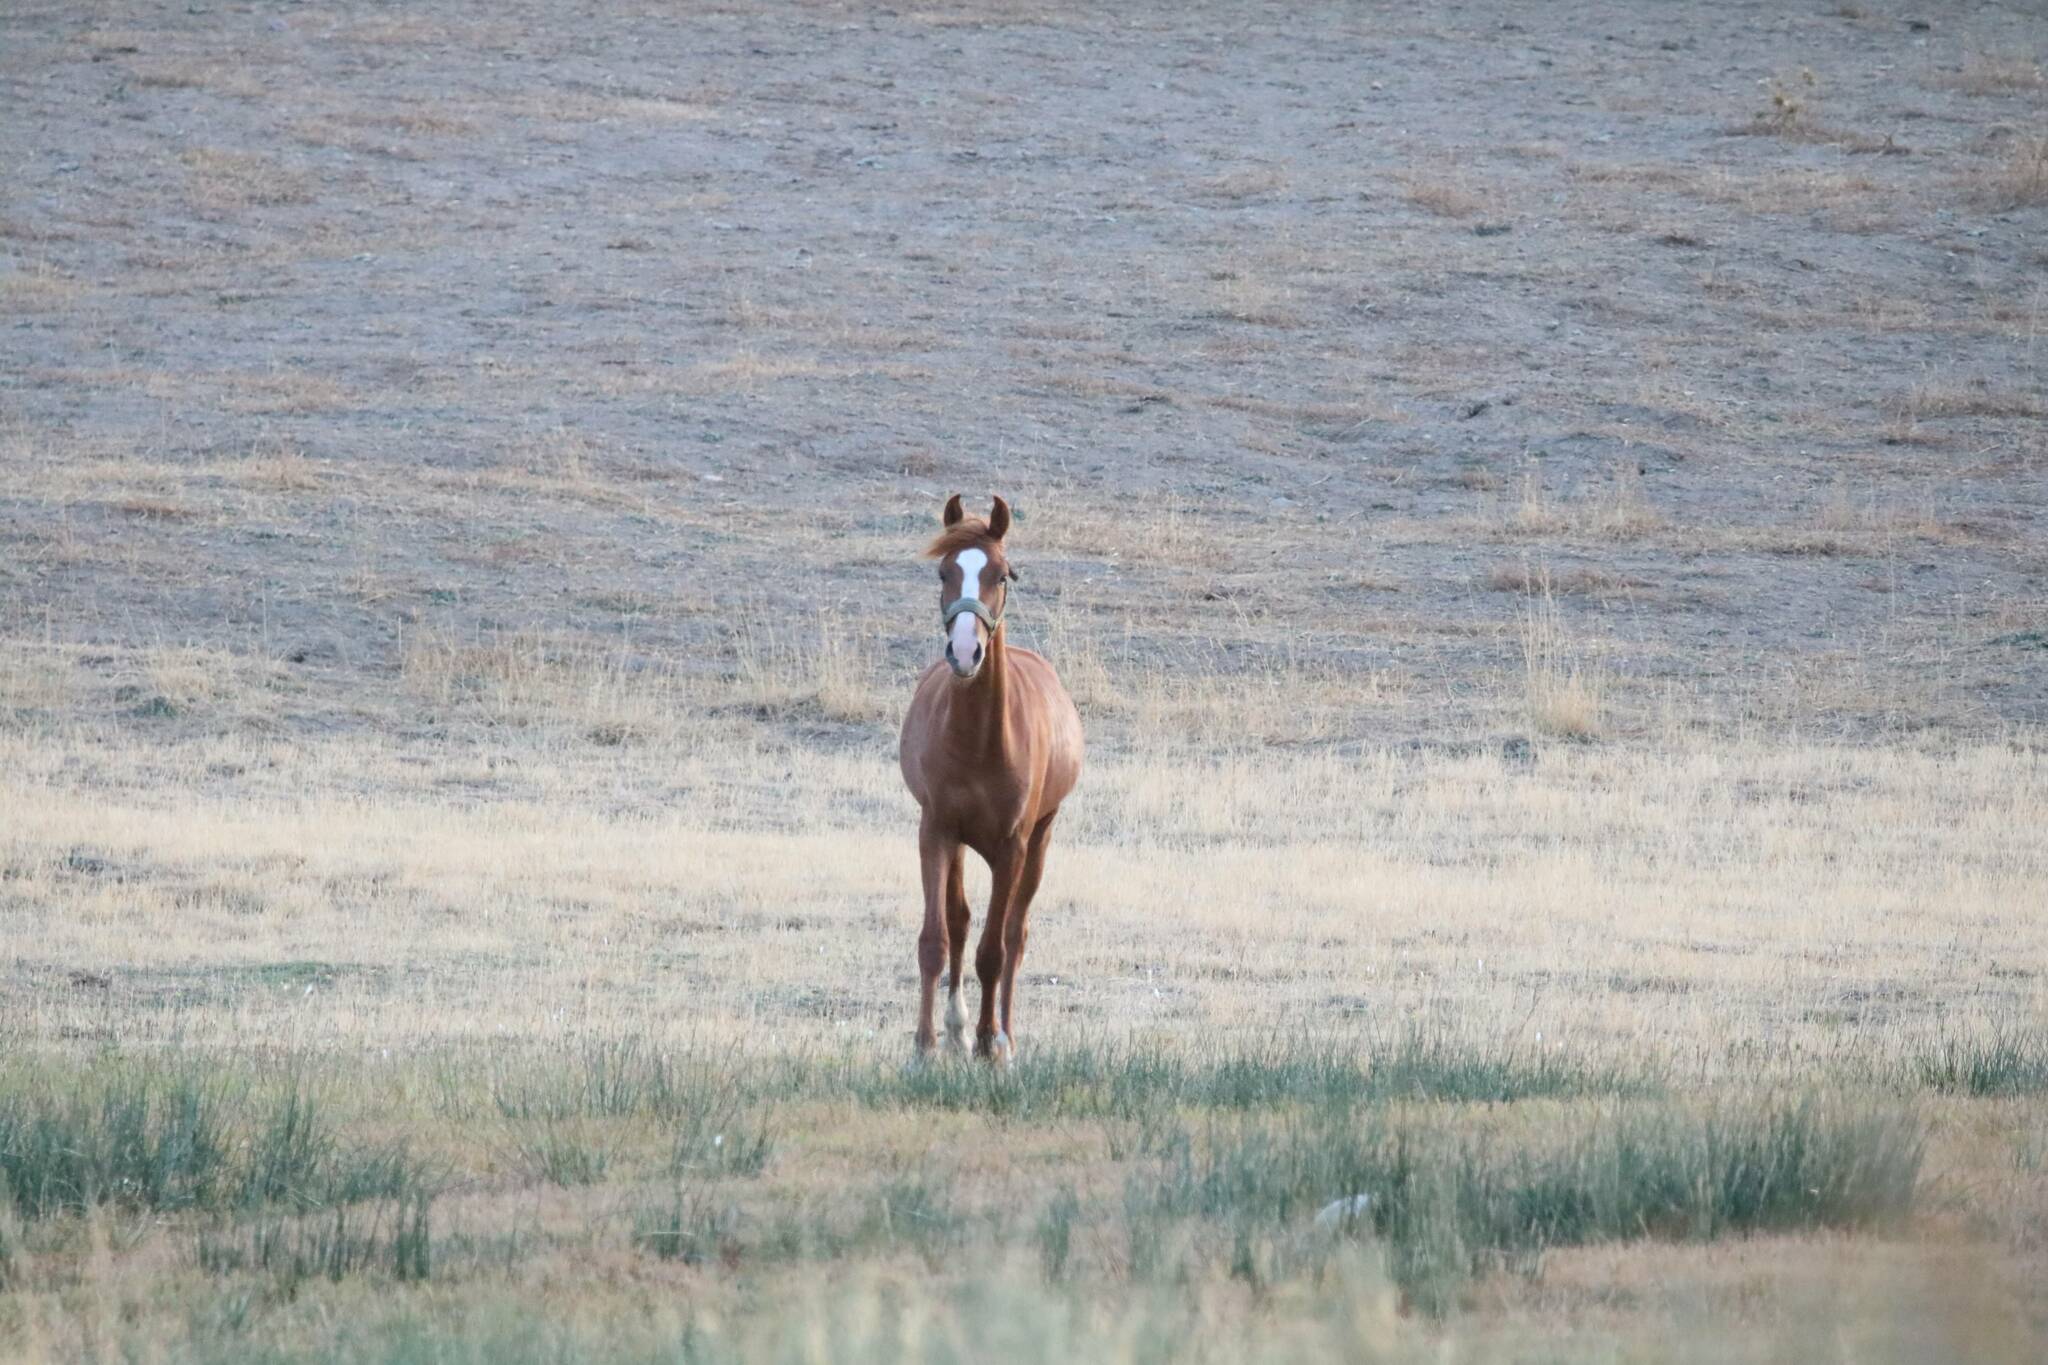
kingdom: Animalia
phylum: Chordata
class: Mammalia
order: Perissodactyla
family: Equidae
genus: Equus
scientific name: Equus caballus
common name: Horse
